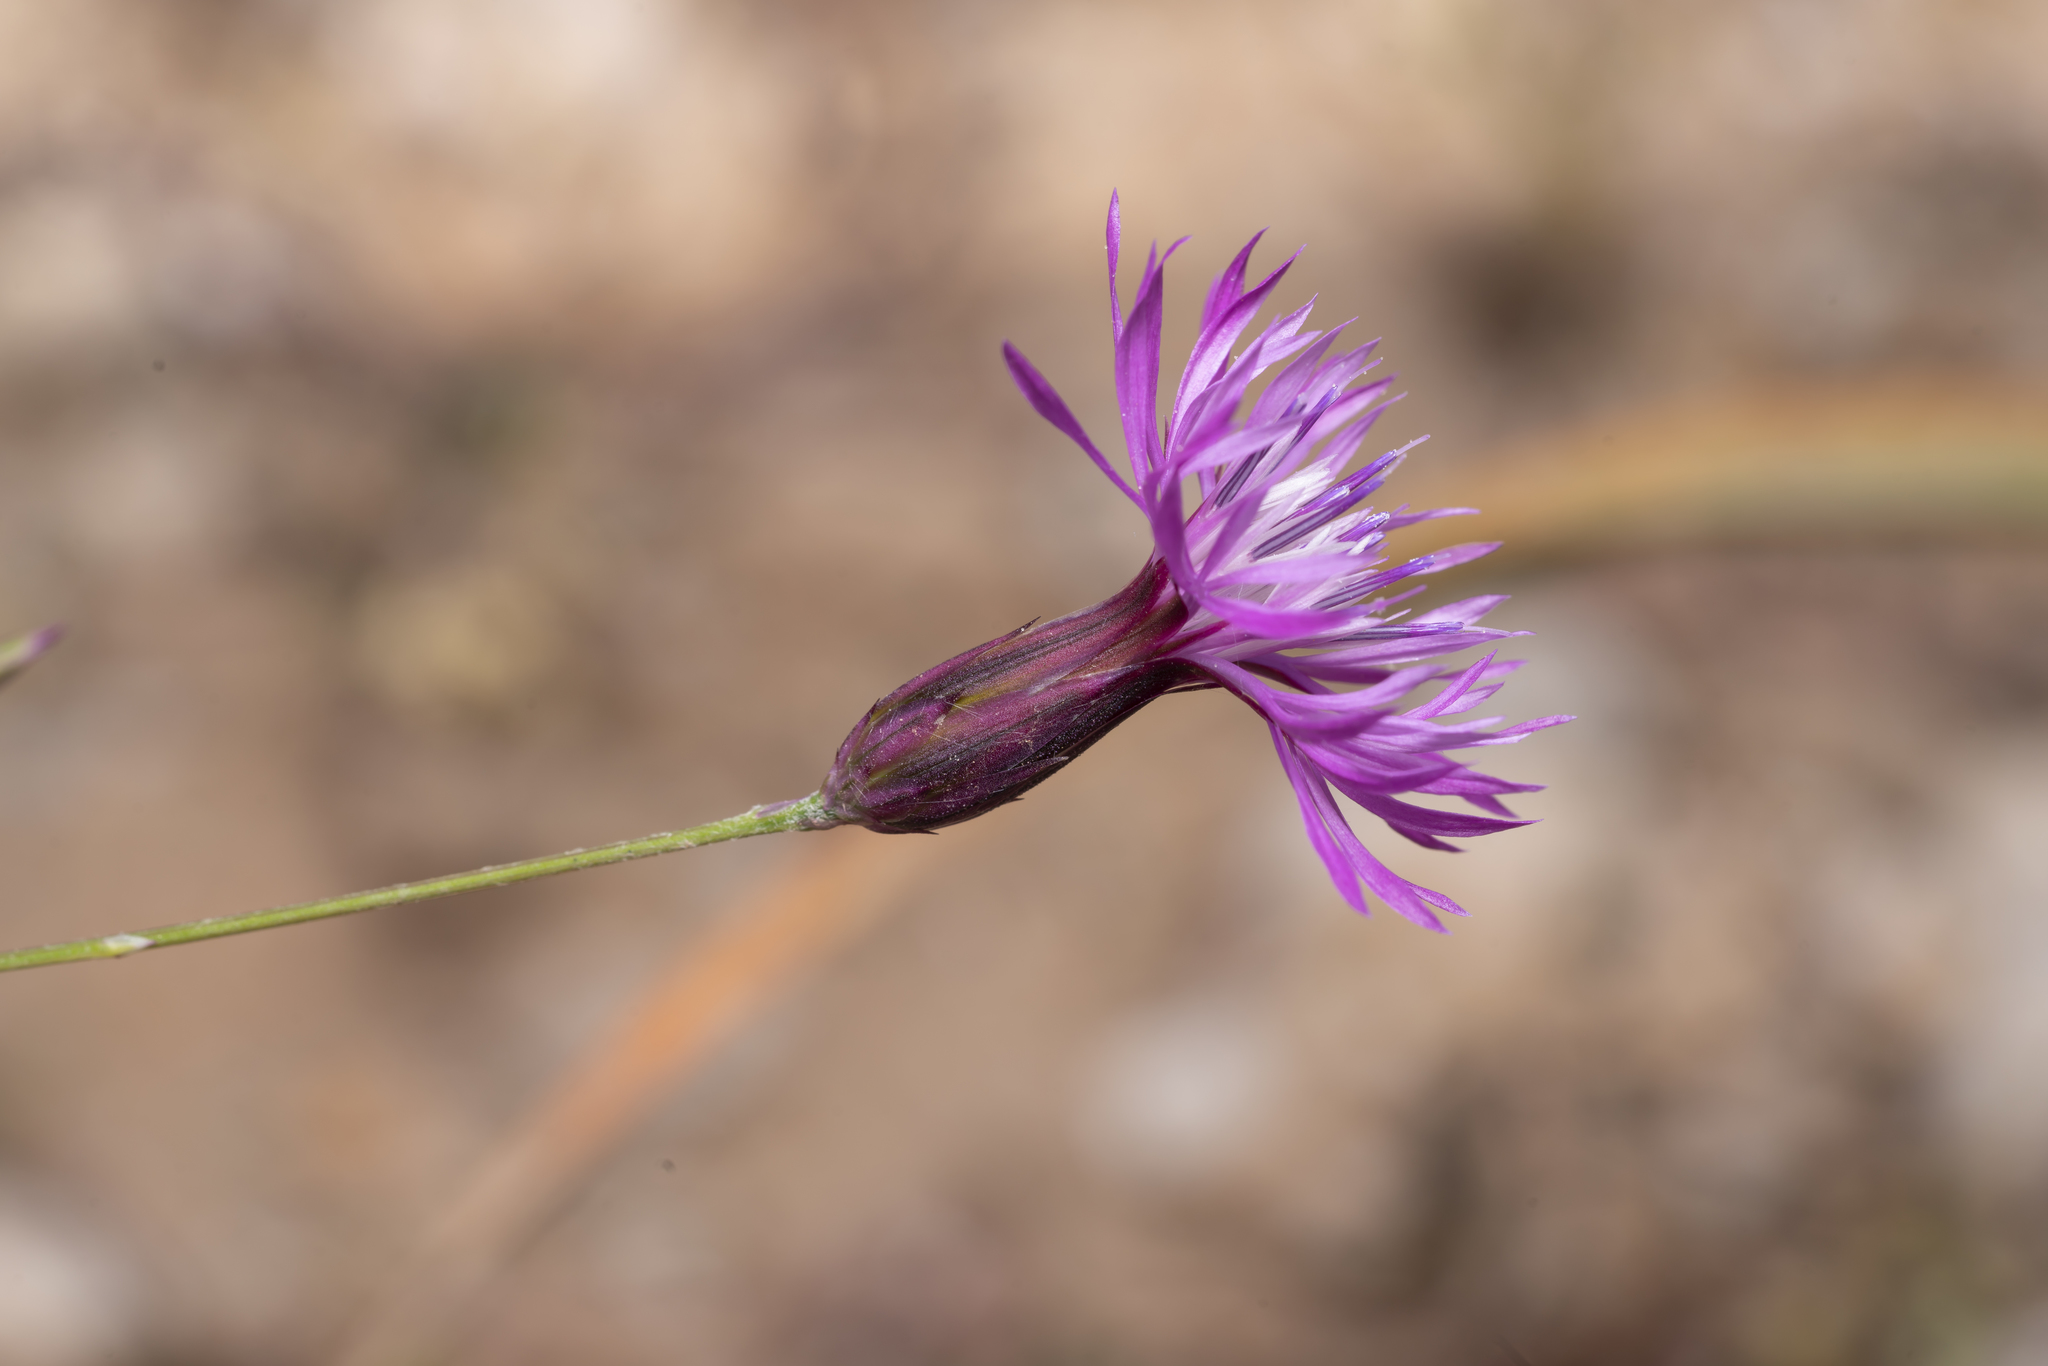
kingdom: Plantae
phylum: Tracheophyta
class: Magnoliopsida
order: Asterales
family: Asteraceae
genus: Crupina
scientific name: Crupina crupinastrum
